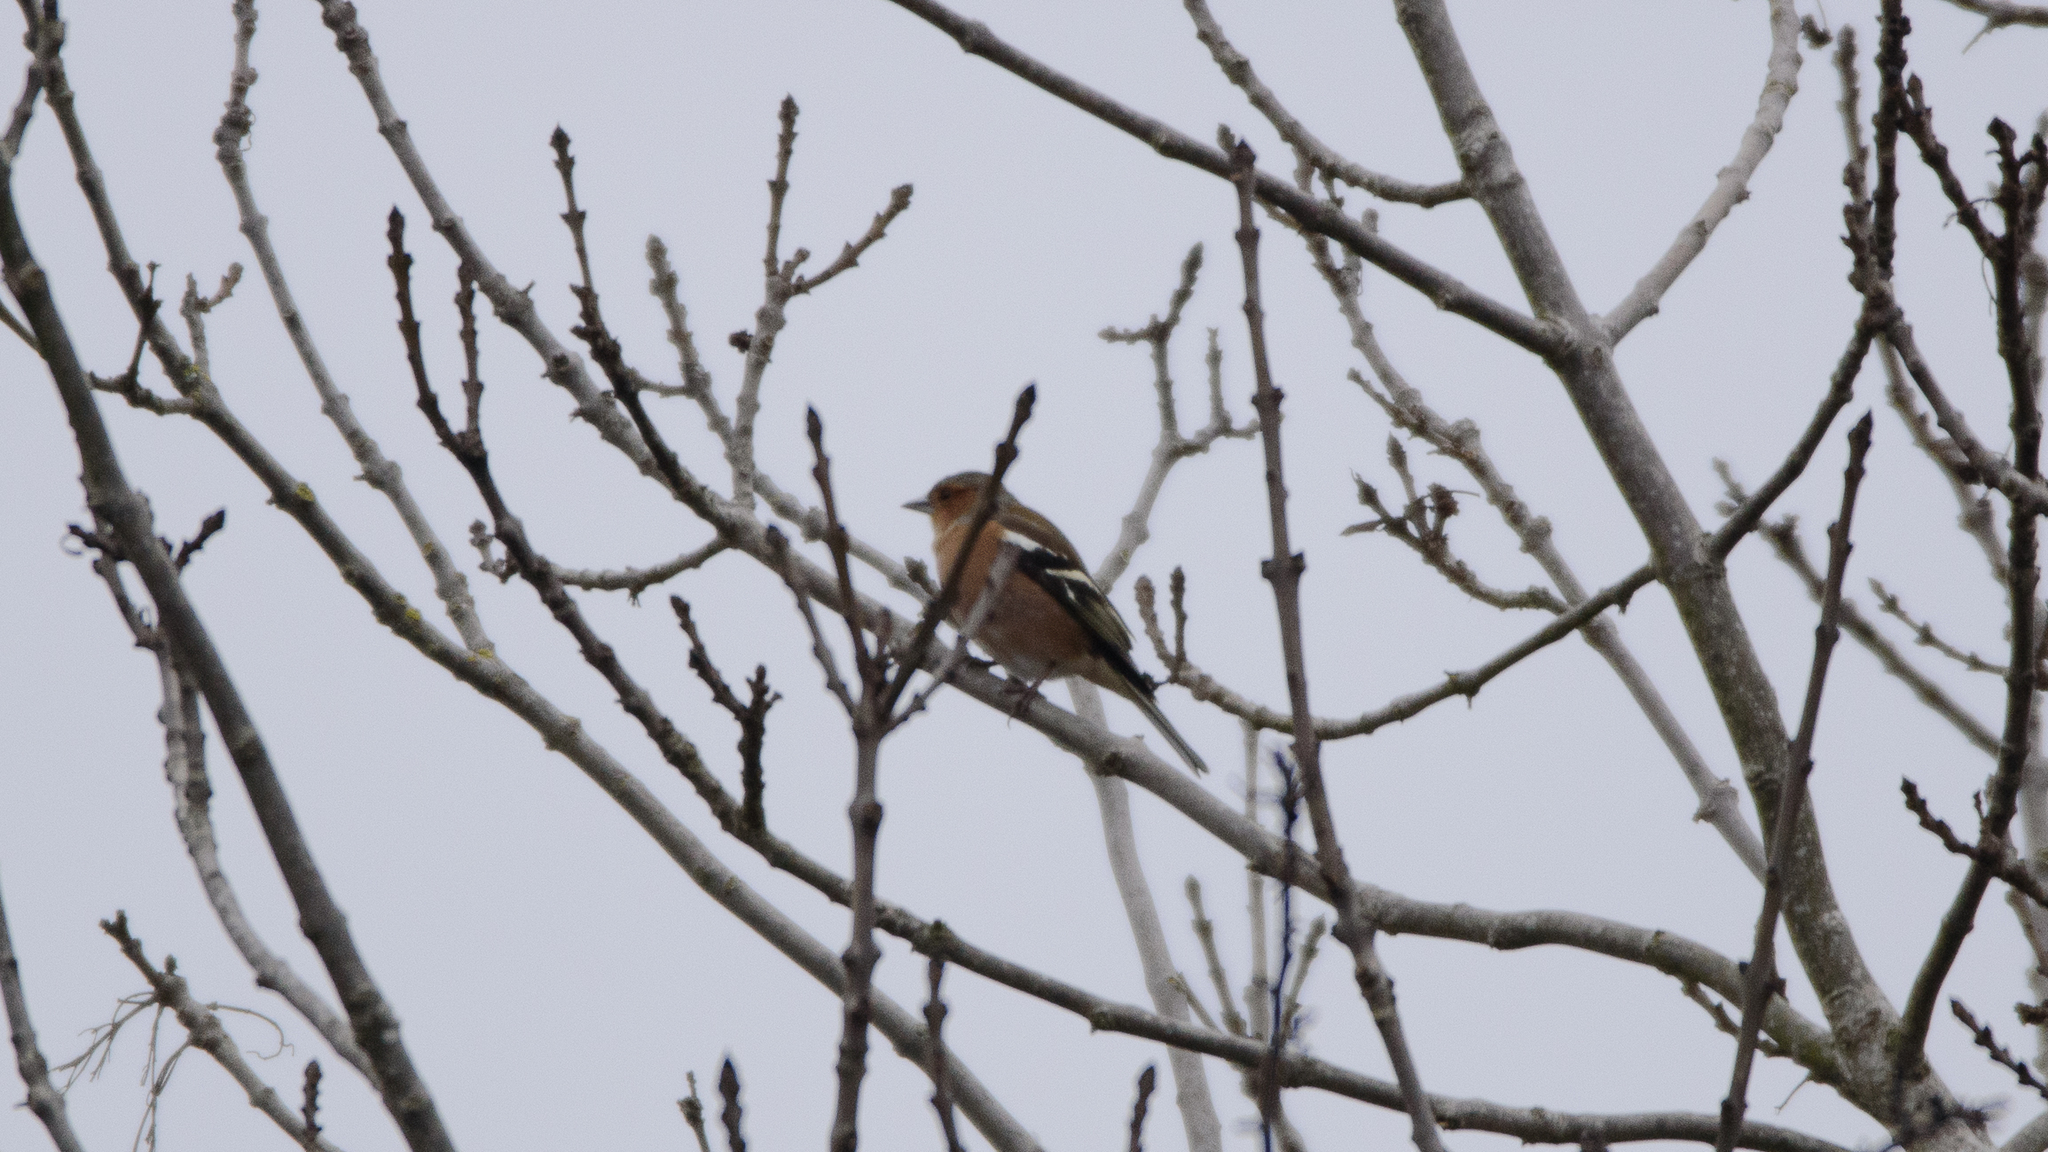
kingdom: Animalia
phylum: Chordata
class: Aves
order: Passeriformes
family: Fringillidae
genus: Fringilla
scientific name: Fringilla coelebs
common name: Common chaffinch
